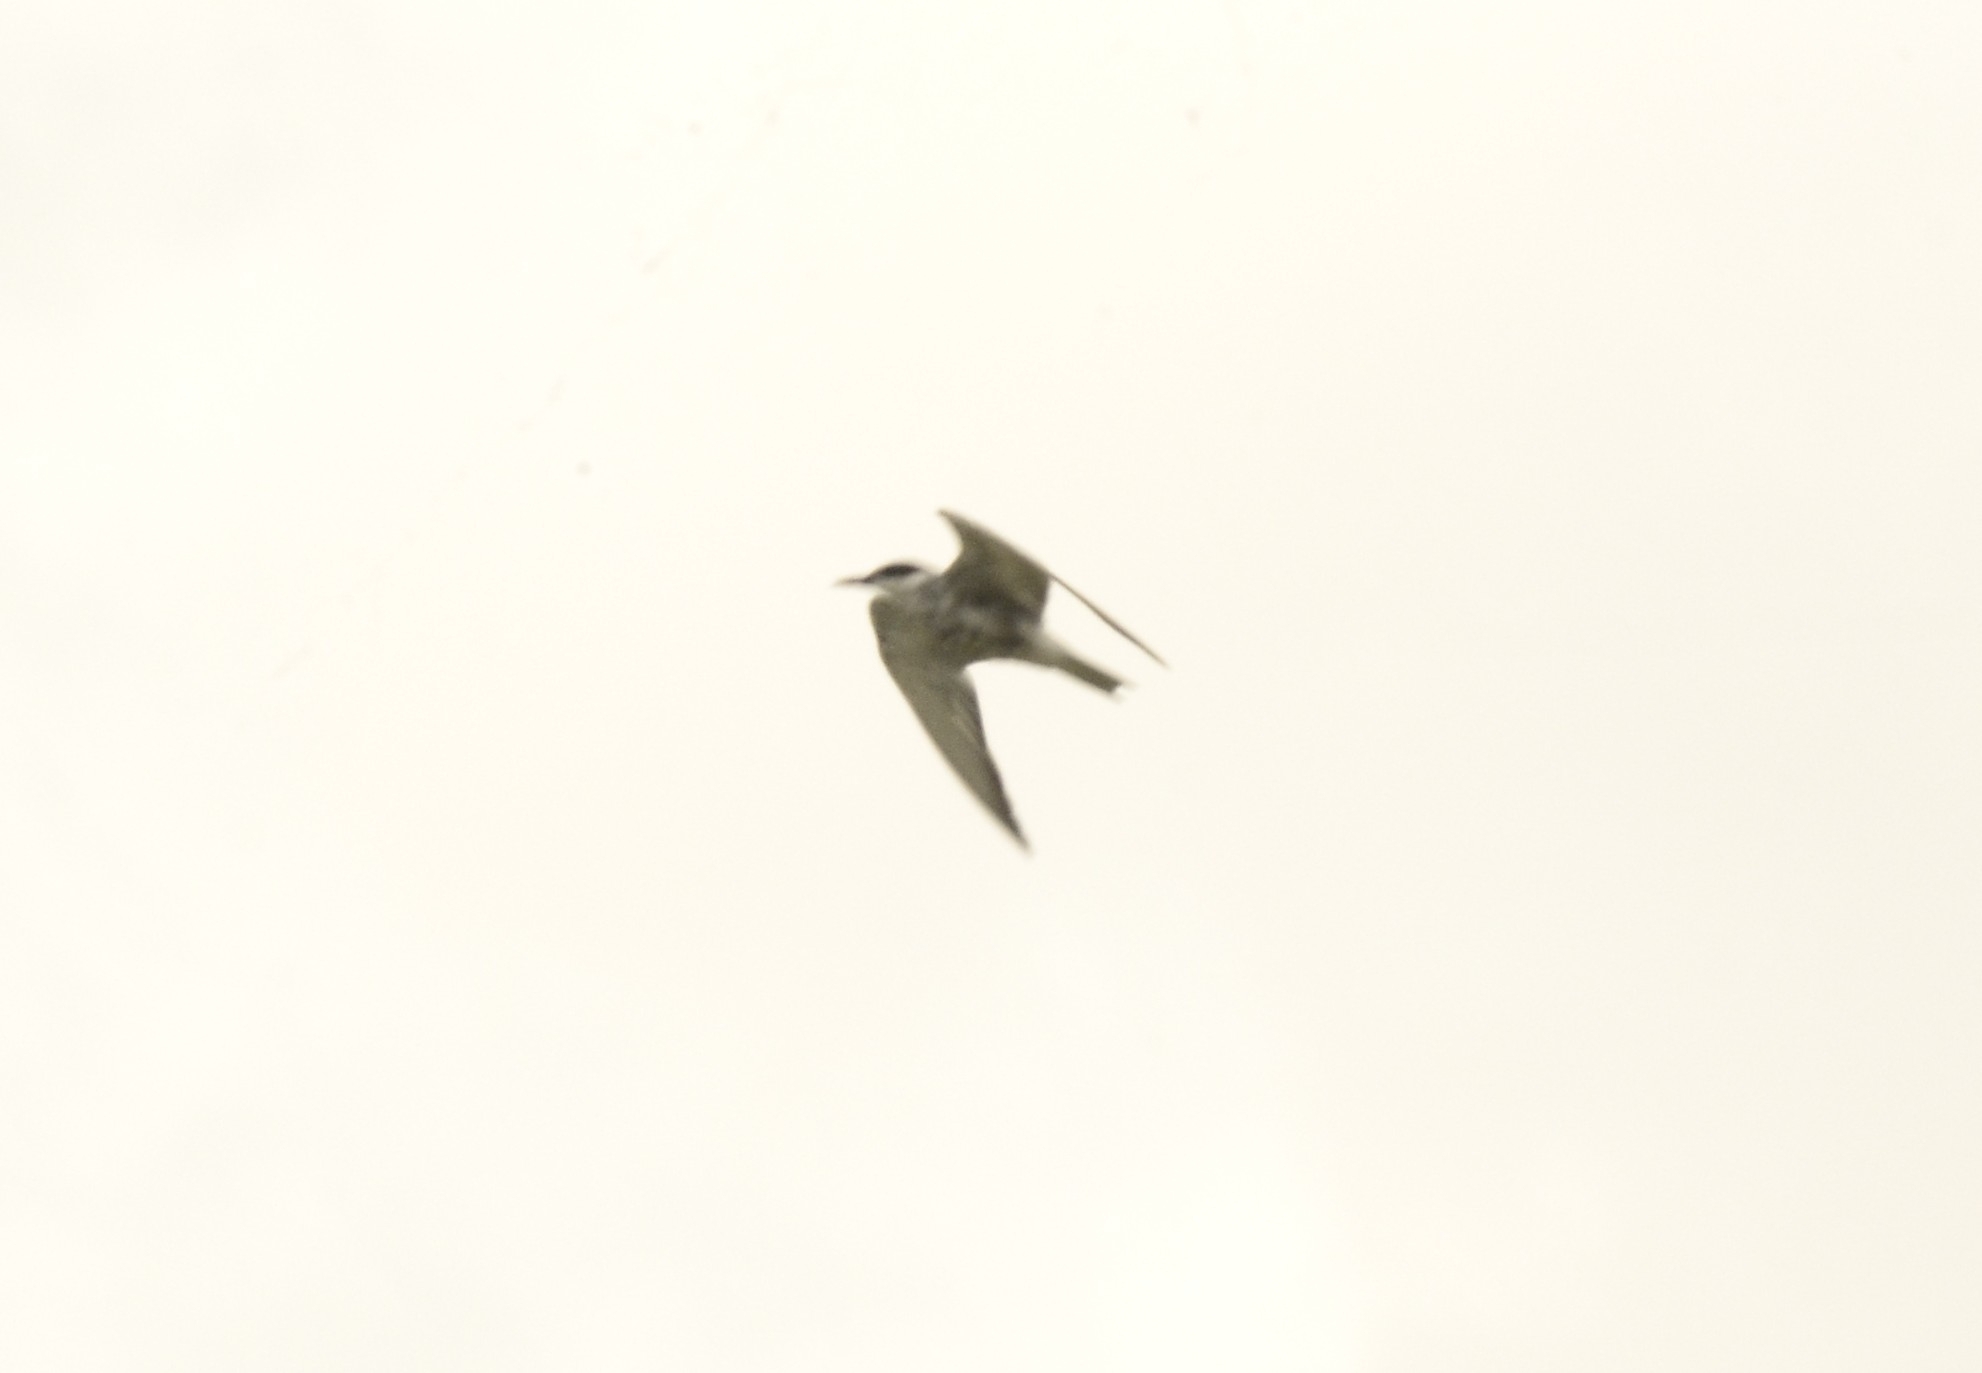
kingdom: Animalia
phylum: Chordata
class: Aves
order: Charadriiformes
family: Laridae
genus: Chlidonias
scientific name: Chlidonias hybrida
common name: Whiskered tern
